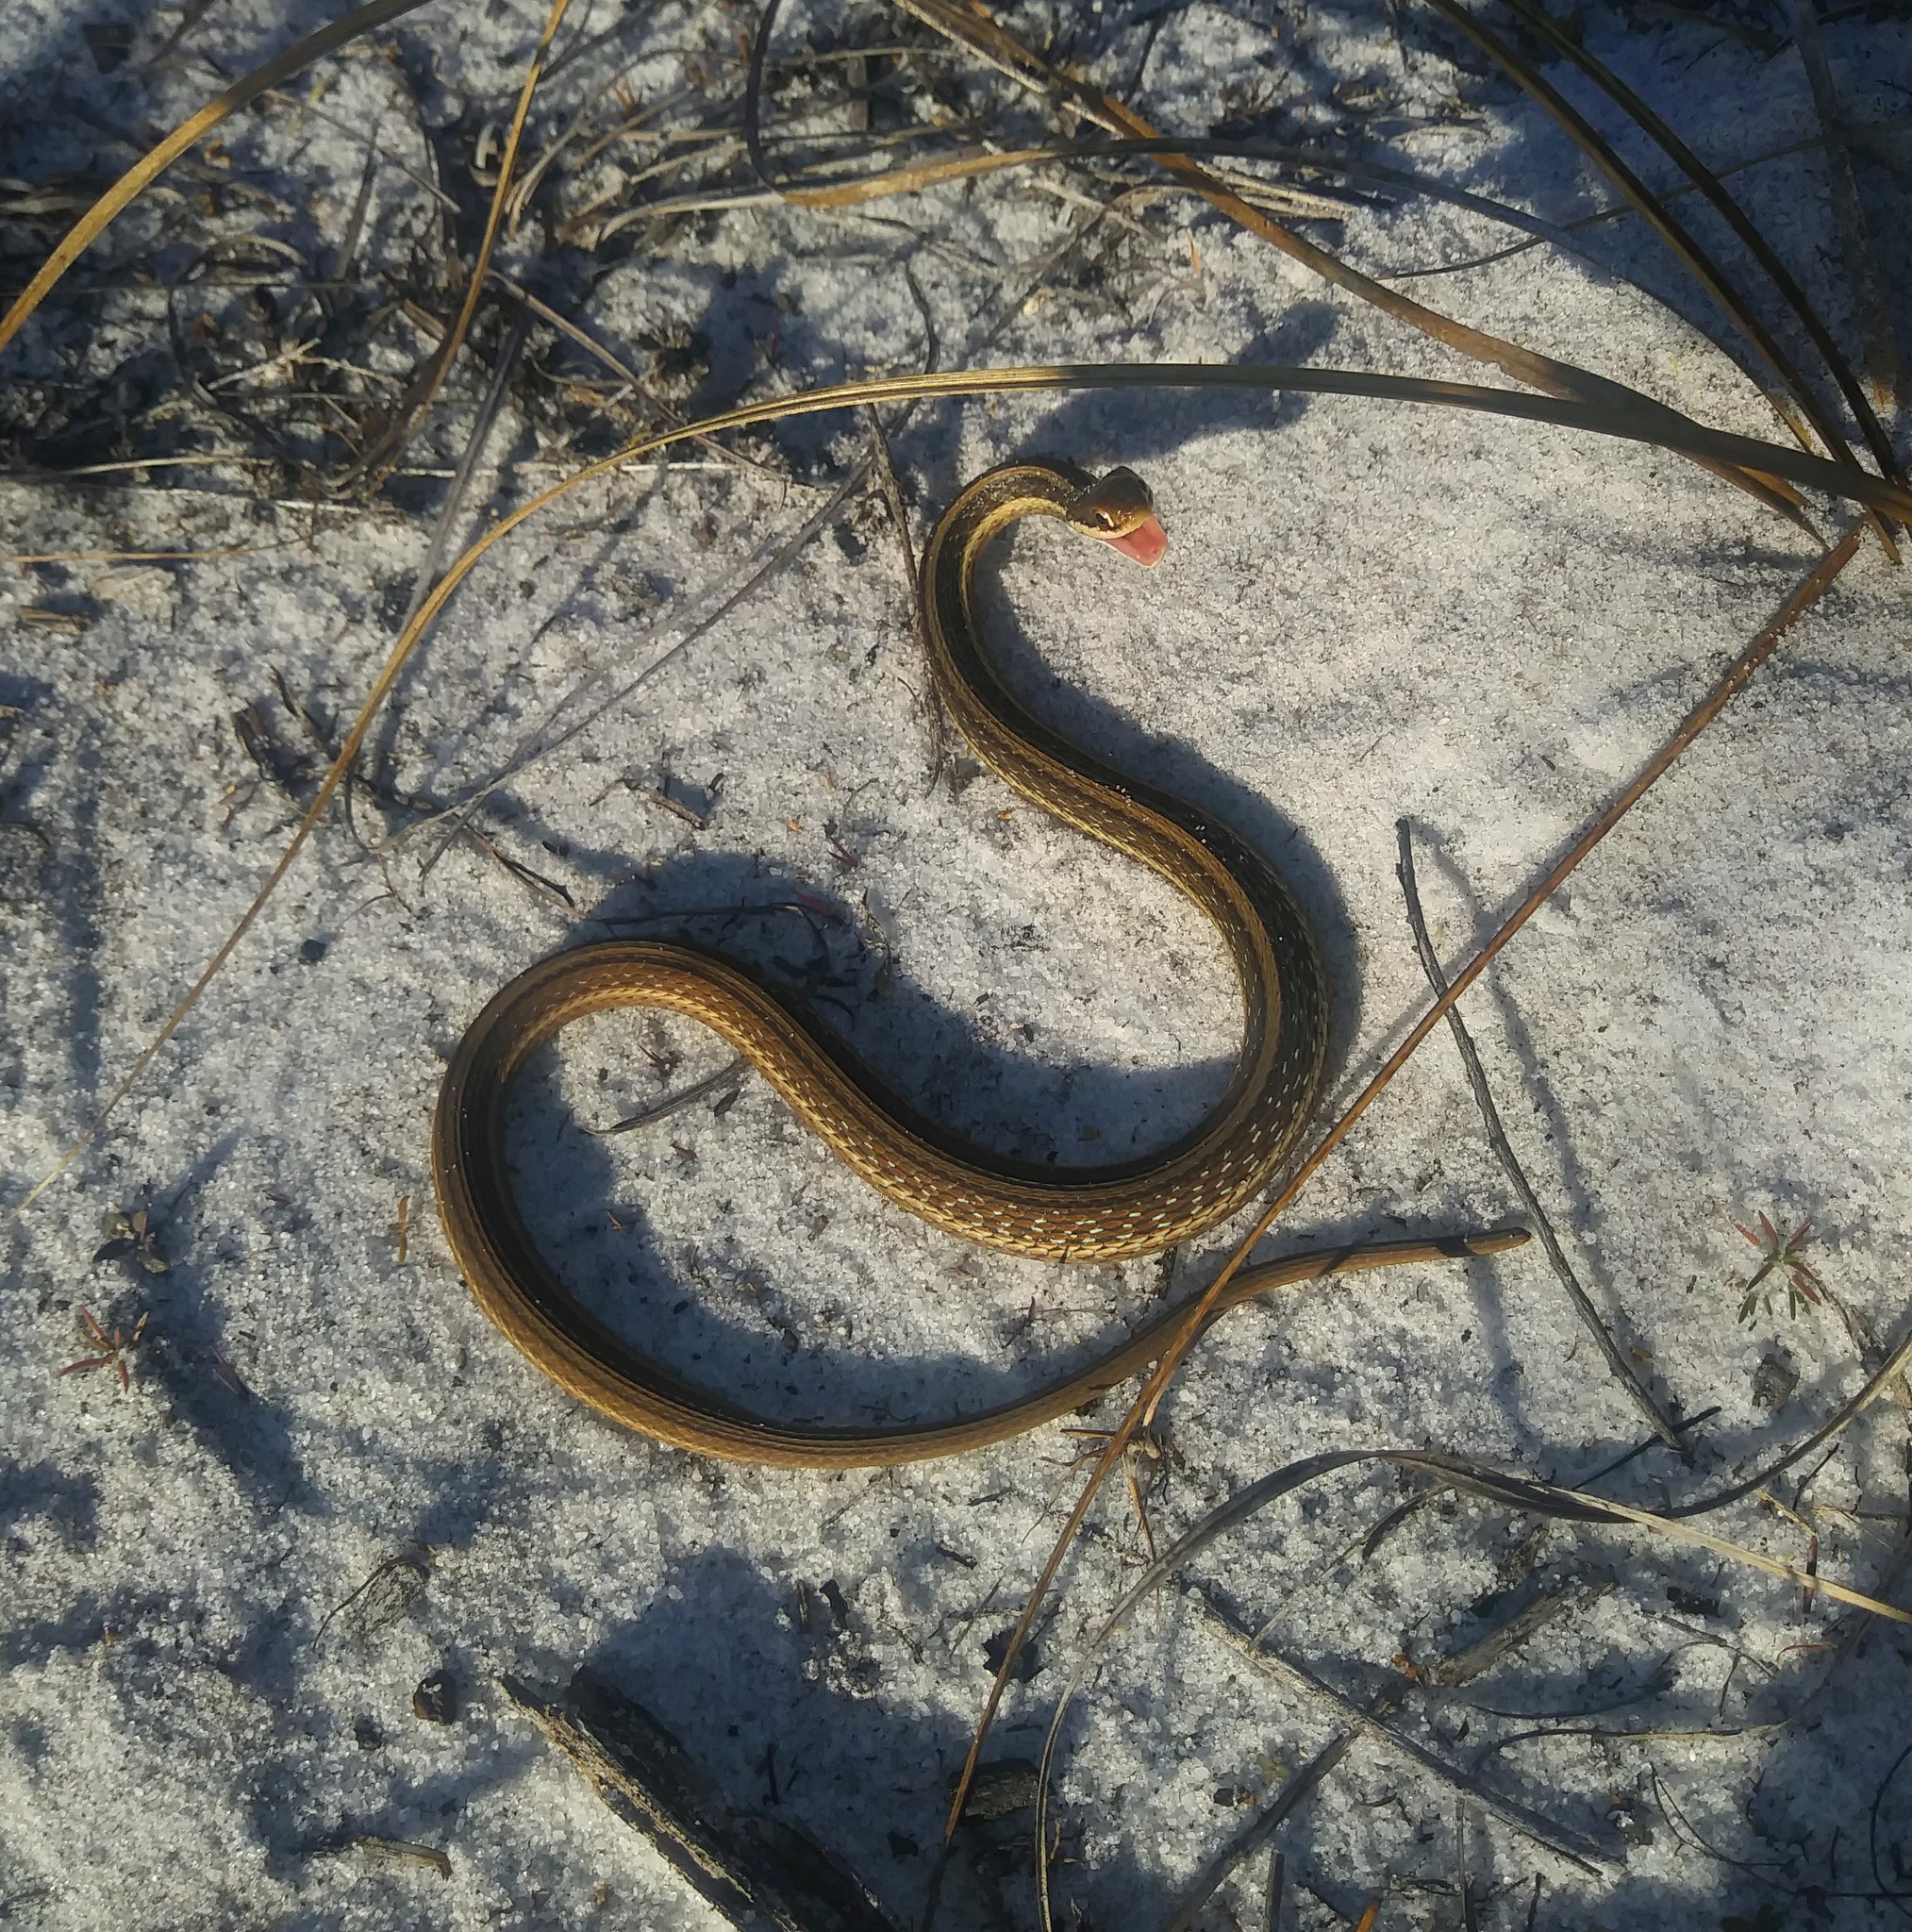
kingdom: Animalia
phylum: Chordata
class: Squamata
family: Colubridae
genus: Thamnophis
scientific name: Thamnophis saurita
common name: Eastern ribbonsnake
